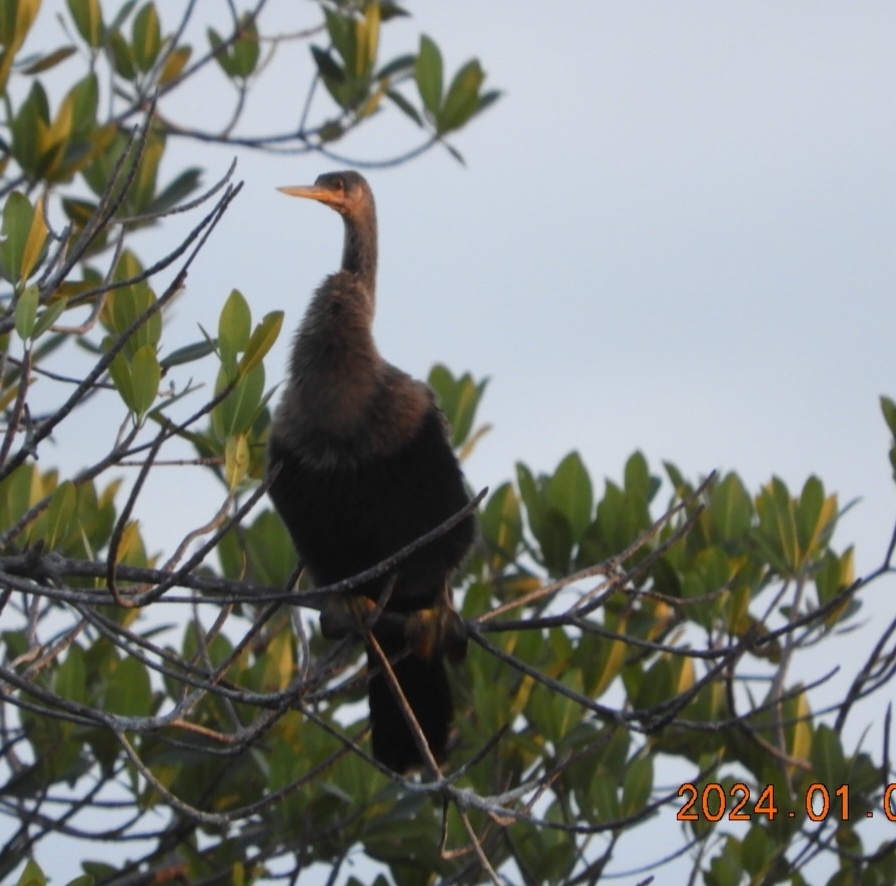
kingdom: Animalia
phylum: Chordata
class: Aves
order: Suliformes
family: Anhingidae
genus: Anhinga
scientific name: Anhinga anhinga
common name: Anhinga
